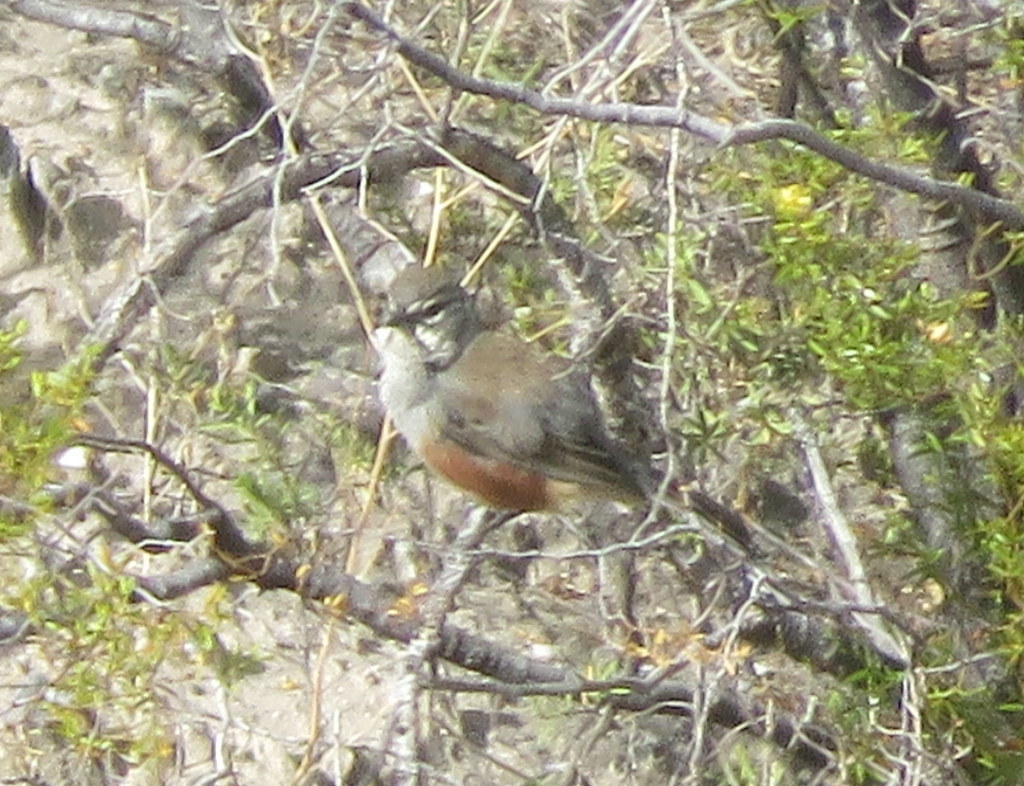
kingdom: Animalia
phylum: Chordata
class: Aves
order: Passeriformes
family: Thraupidae
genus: Poospizopsis
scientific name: Poospizopsis hypocondria
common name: Rufous-sided warbling-finch
